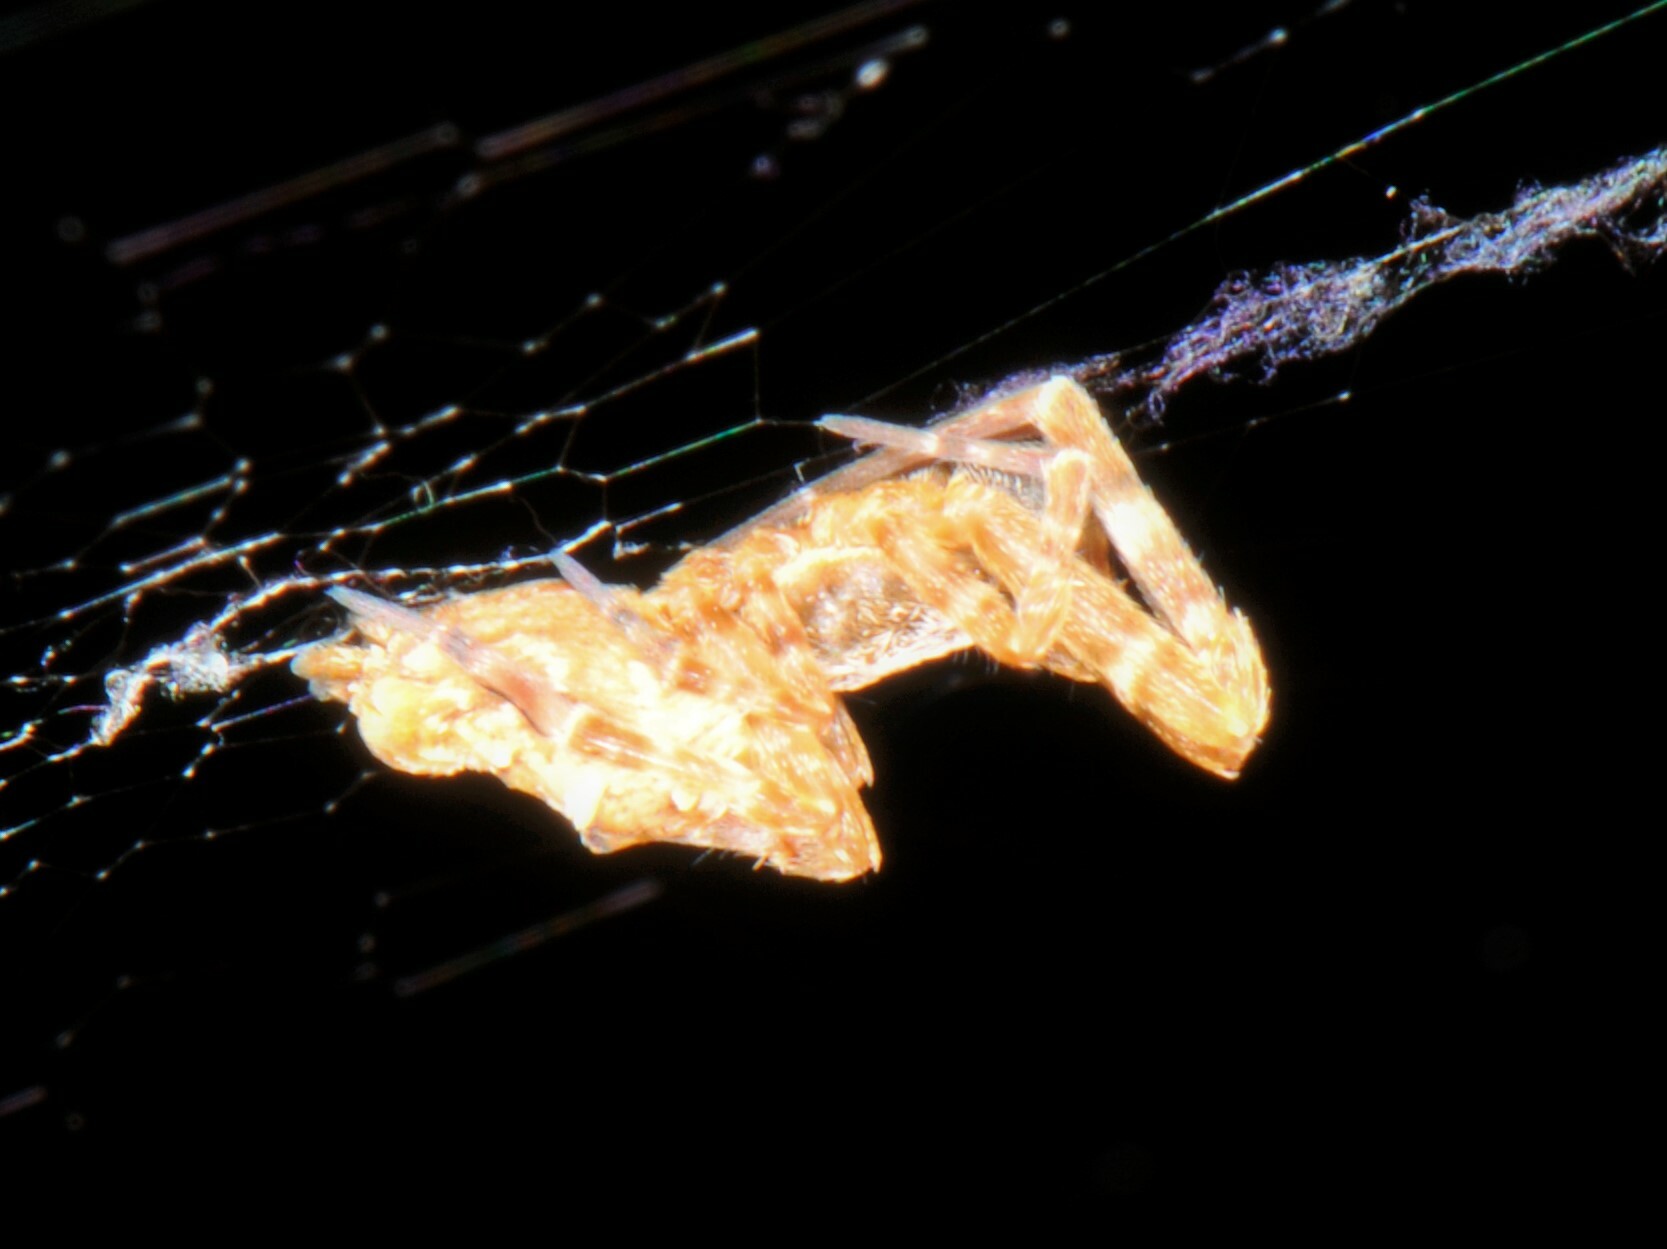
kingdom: Animalia
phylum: Arthropoda
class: Arachnida
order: Araneae
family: Uloboridae
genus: Philoponella
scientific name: Philoponella oweni
